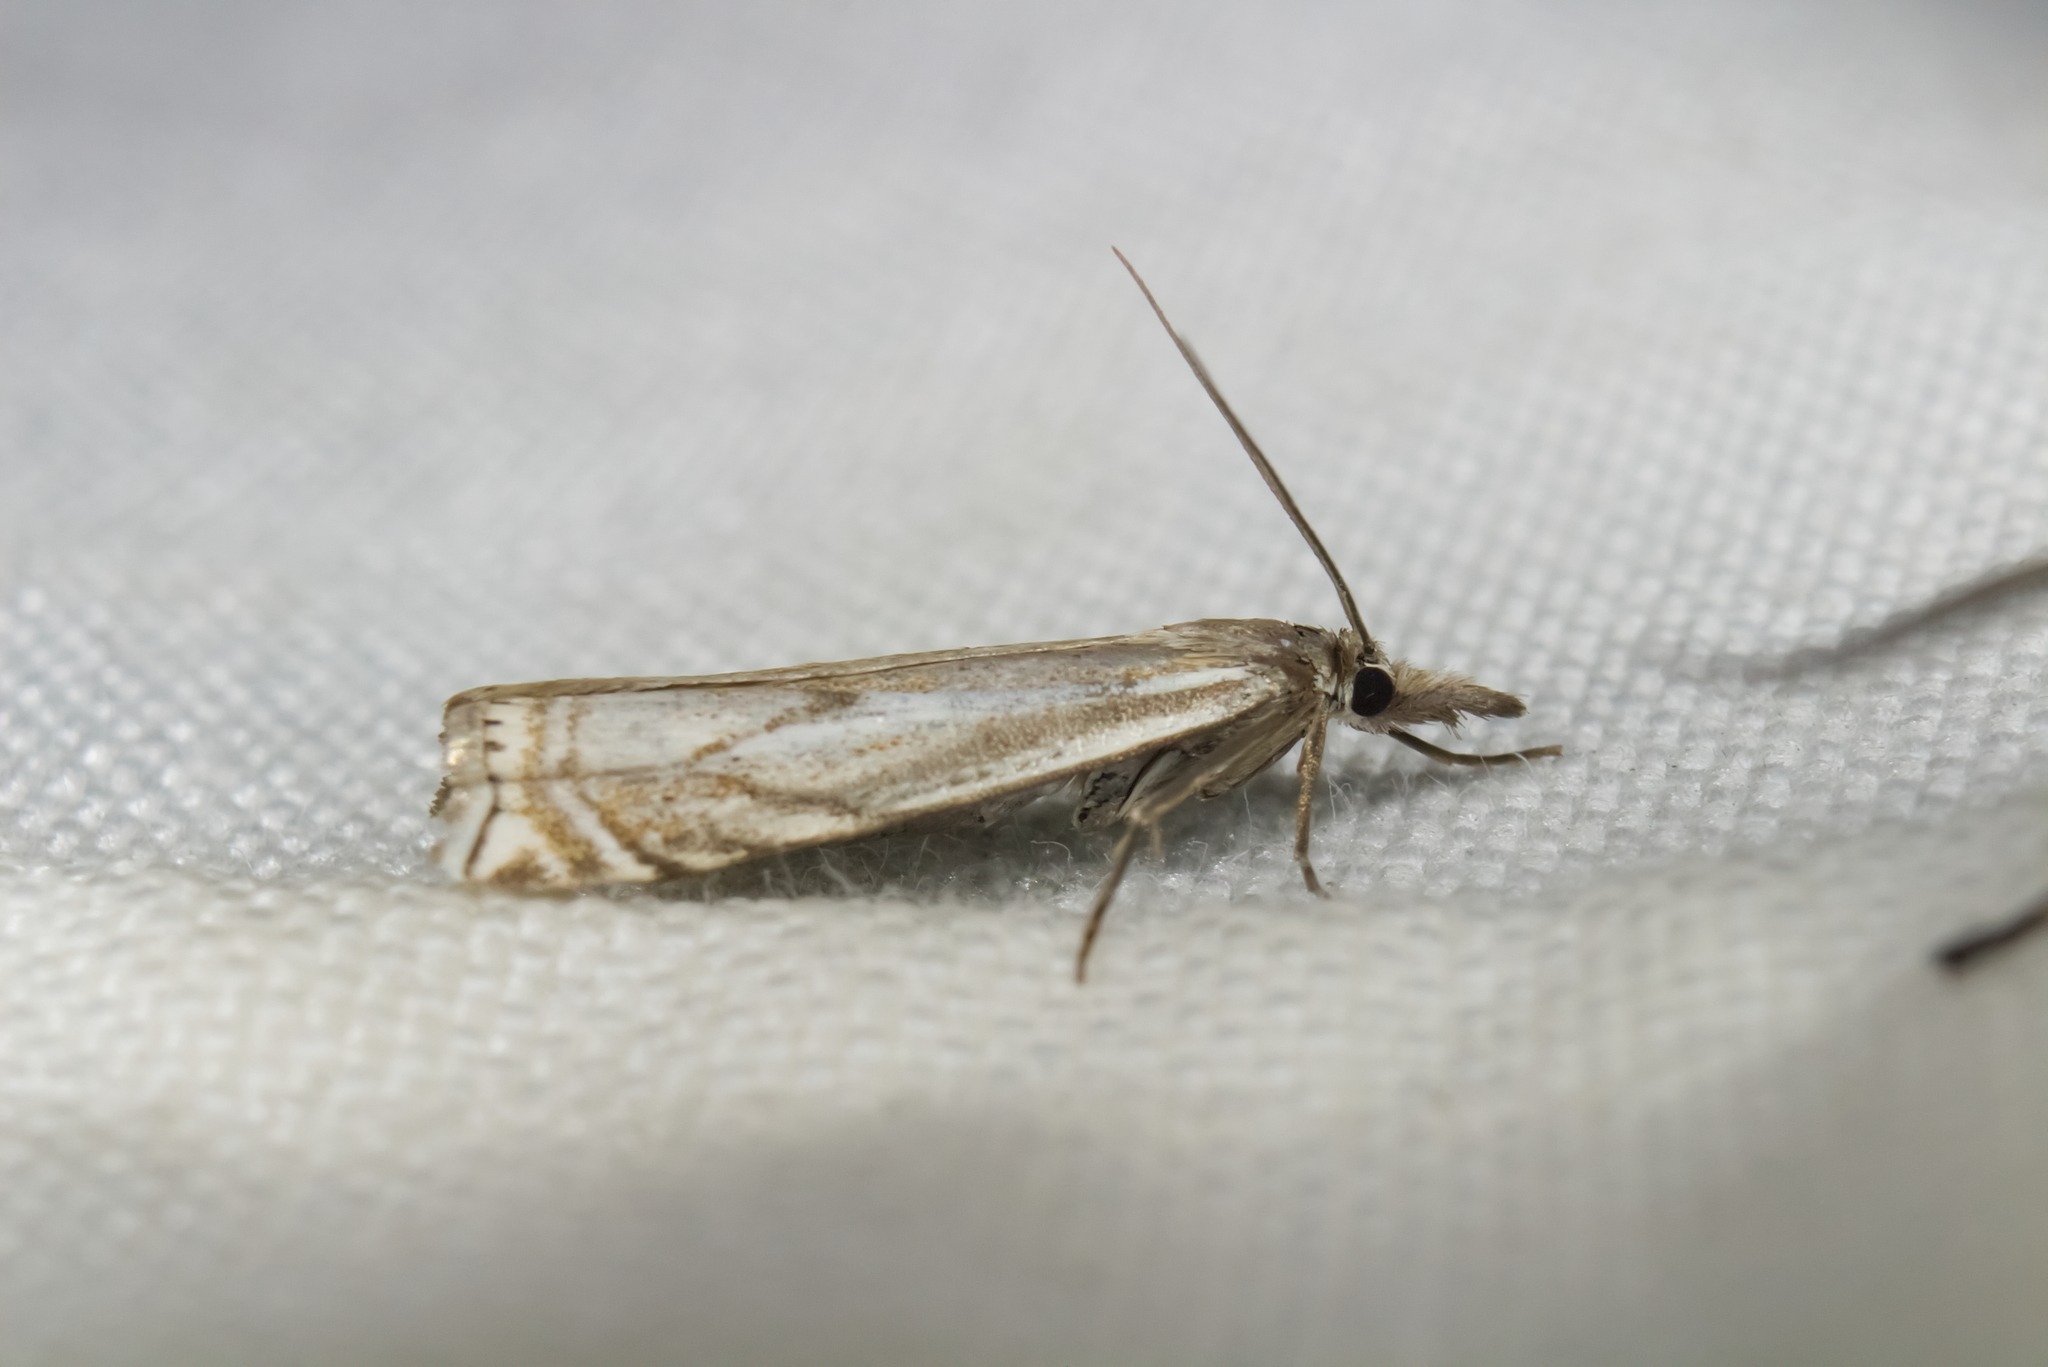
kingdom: Animalia
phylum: Arthropoda
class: Insecta
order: Lepidoptera
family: Crambidae
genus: Crambus
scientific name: Crambus nemorella
